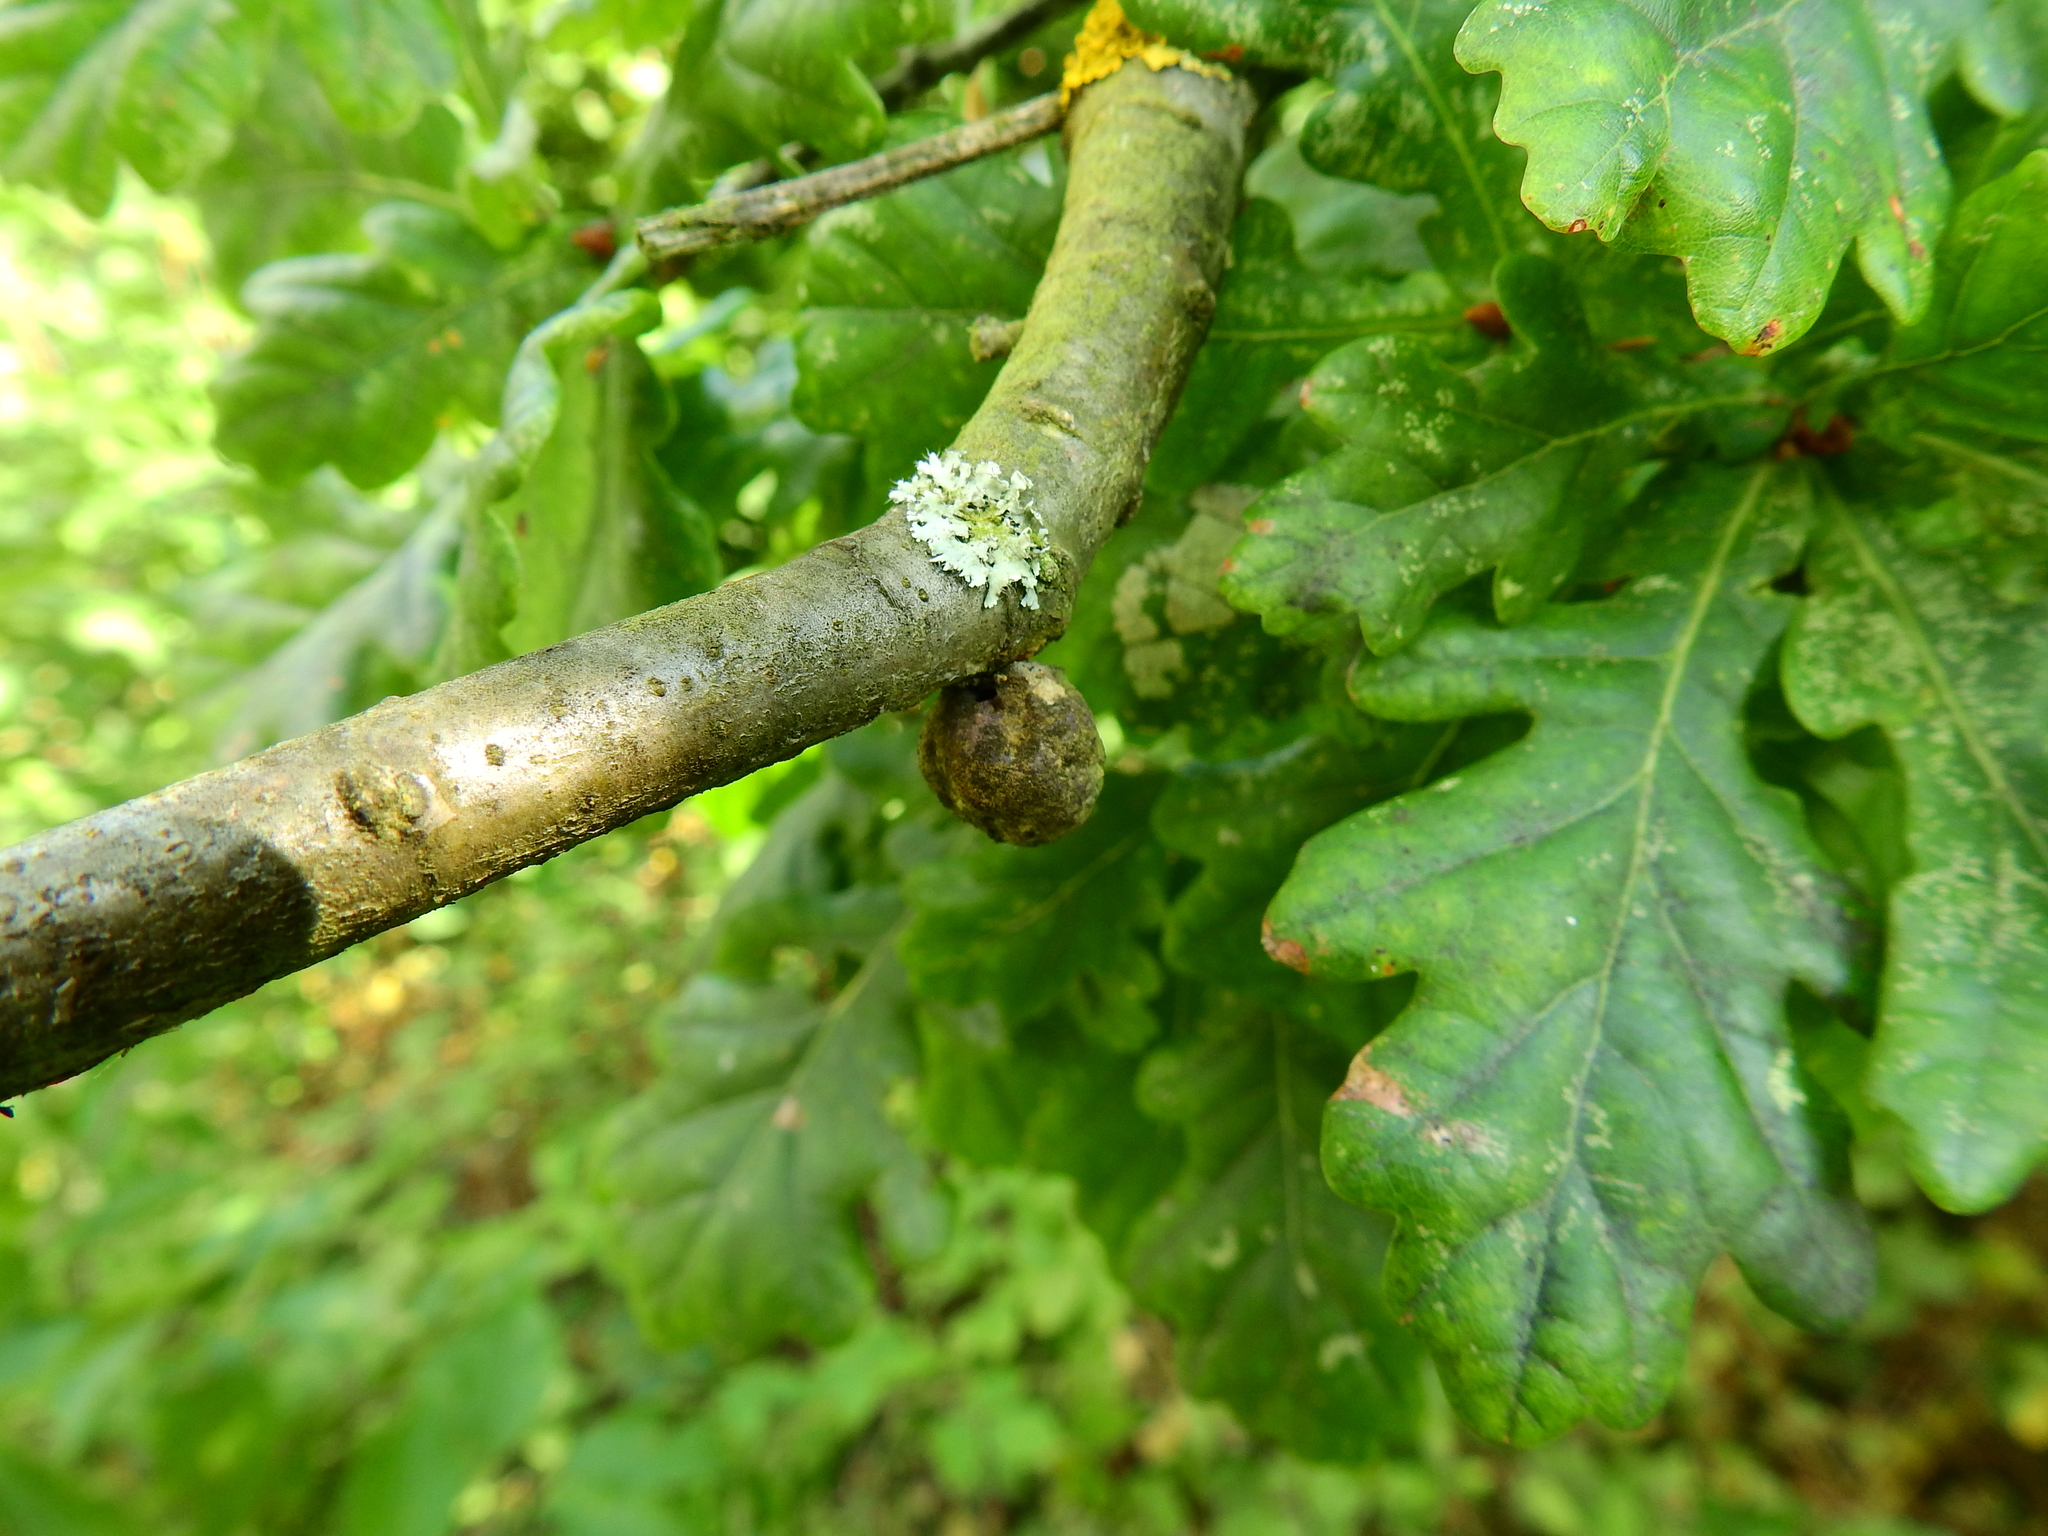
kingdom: Animalia
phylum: Arthropoda
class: Insecta
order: Hymenoptera
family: Cynipidae
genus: Andricus
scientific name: Andricus lignicolus
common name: Cola-nut gall
